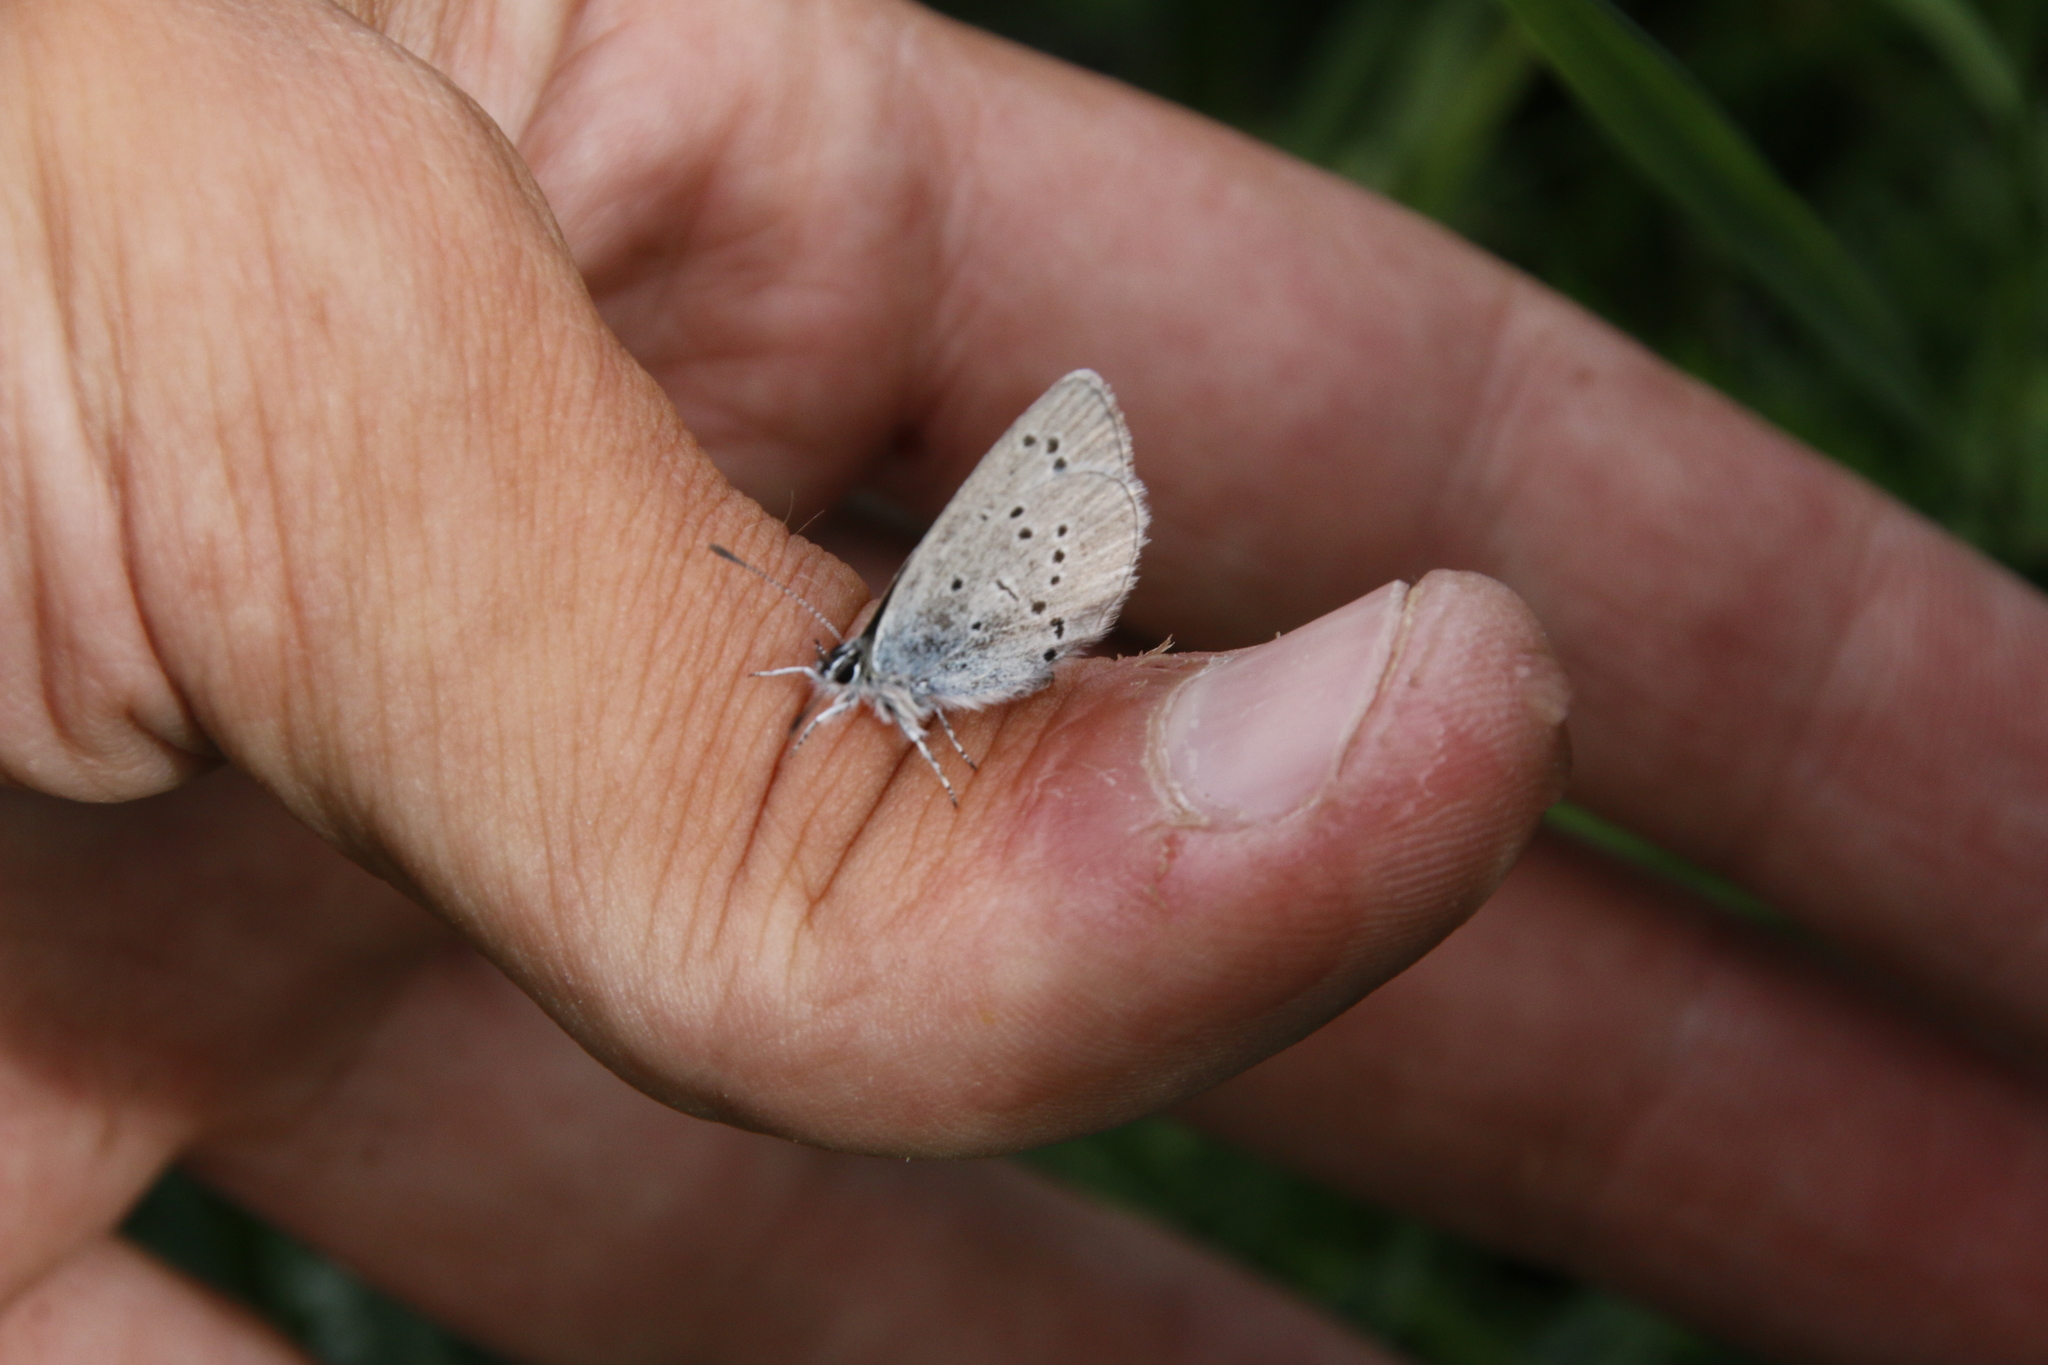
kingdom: Animalia
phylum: Arthropoda
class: Insecta
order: Lepidoptera
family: Lycaenidae
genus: Cupido
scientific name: Cupido minimus
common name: Small blue
